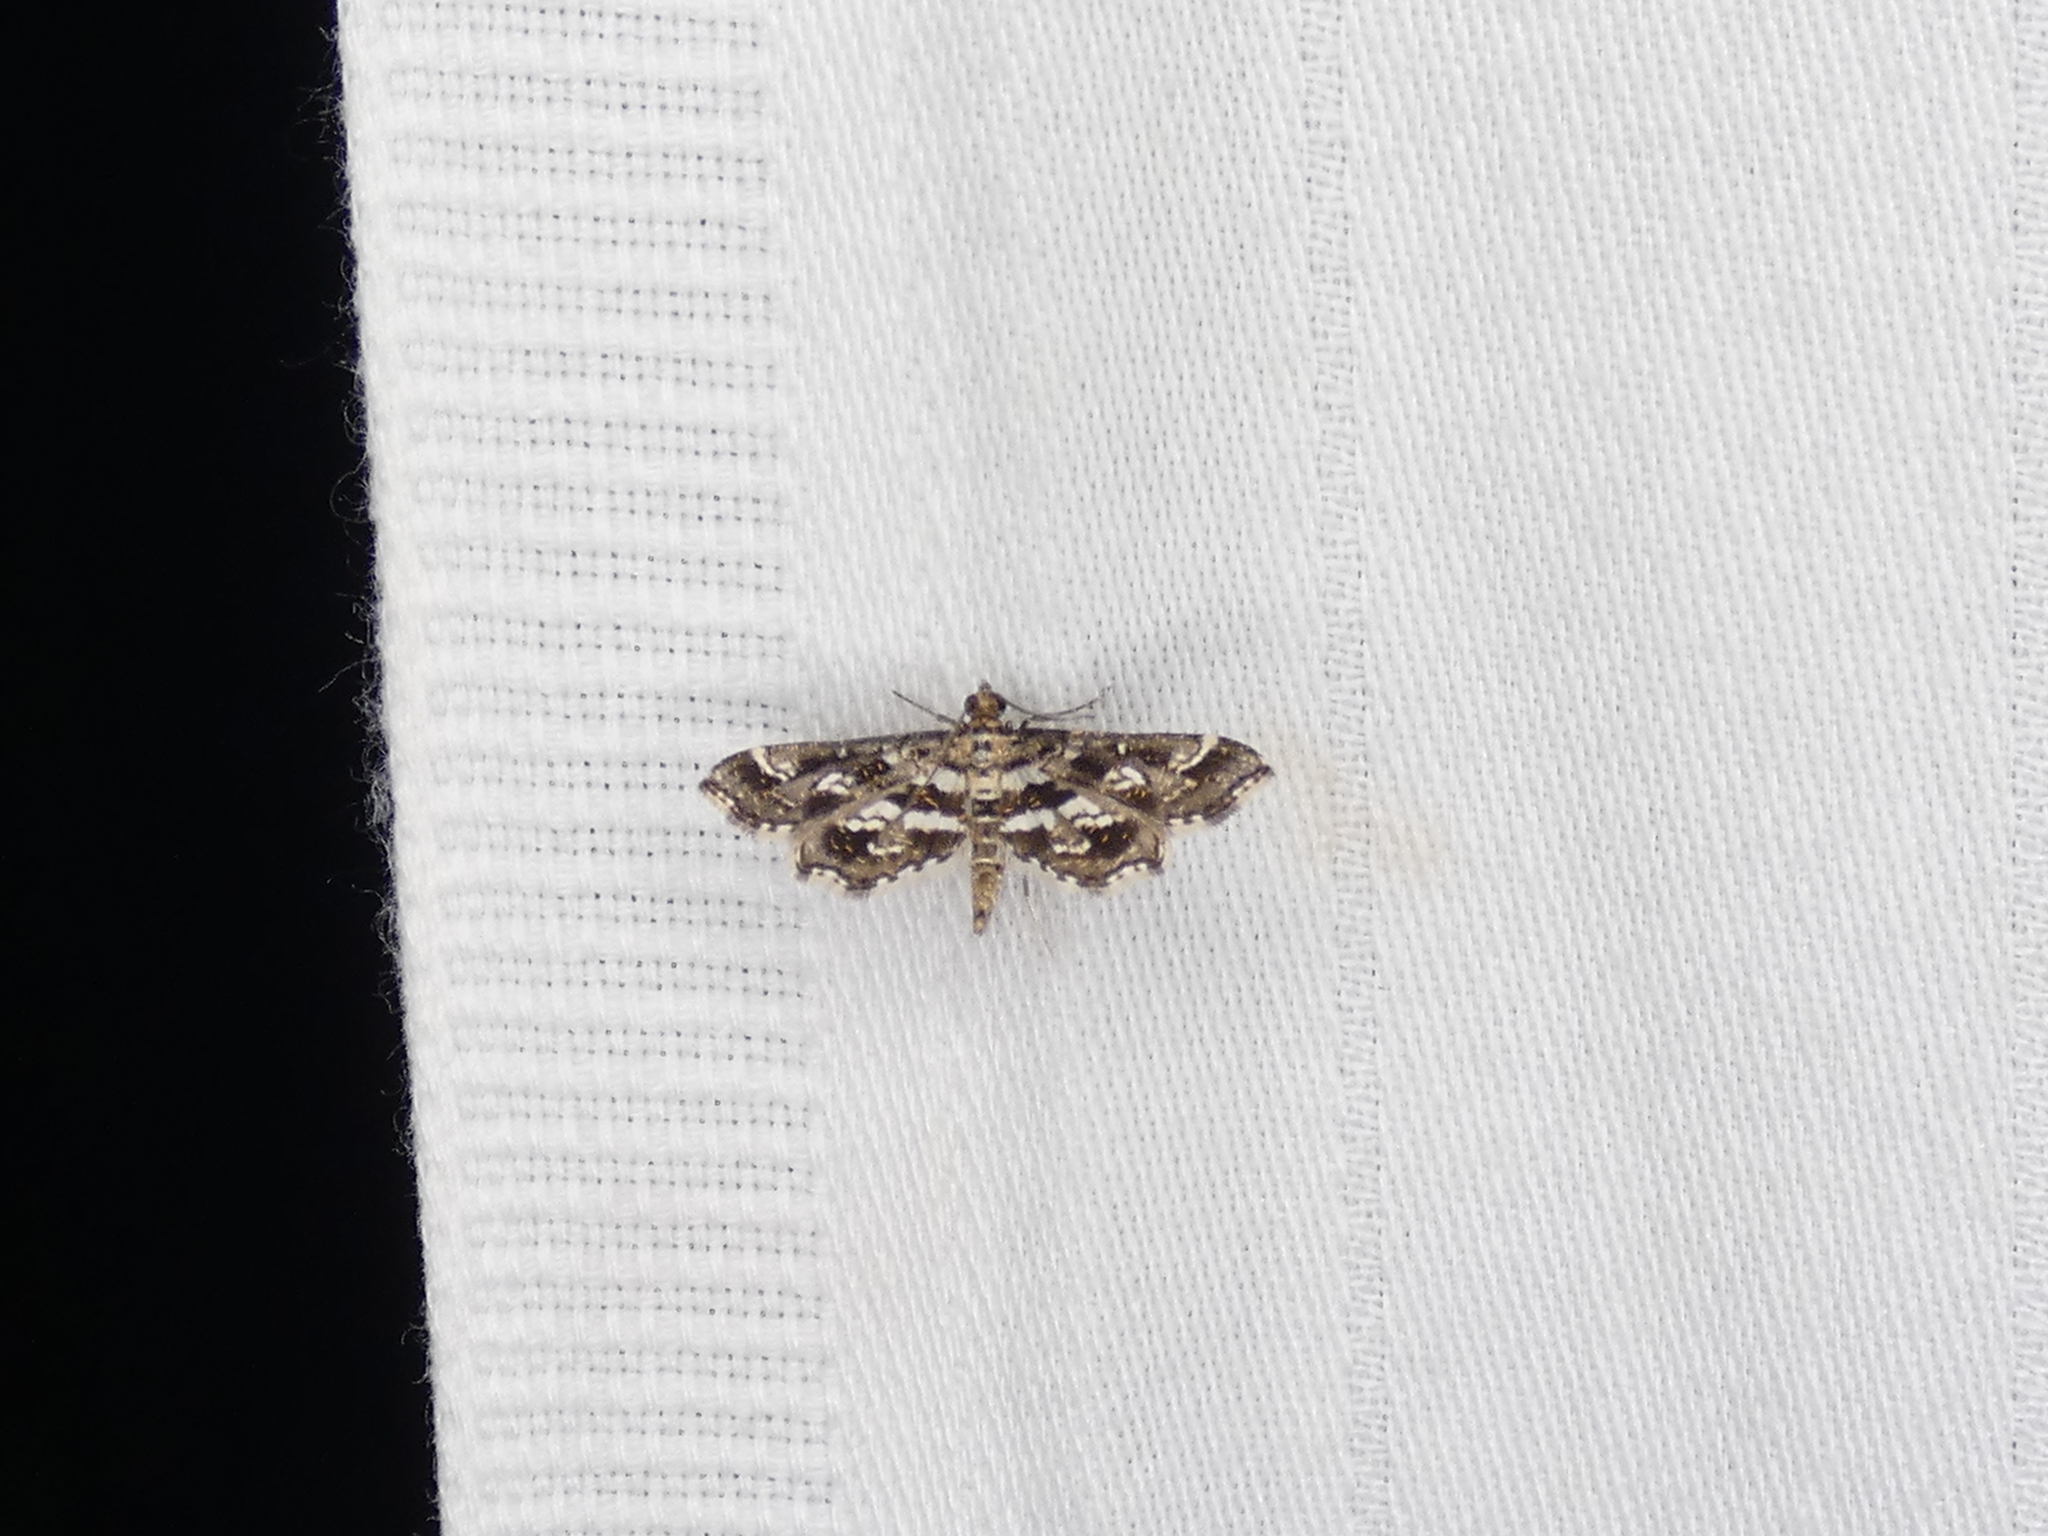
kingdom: Animalia
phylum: Arthropoda
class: Insecta
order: Lepidoptera
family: Crambidae
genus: Diasemiopsis
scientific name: Diasemiopsis ramburialis
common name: Vagrant china-mark
